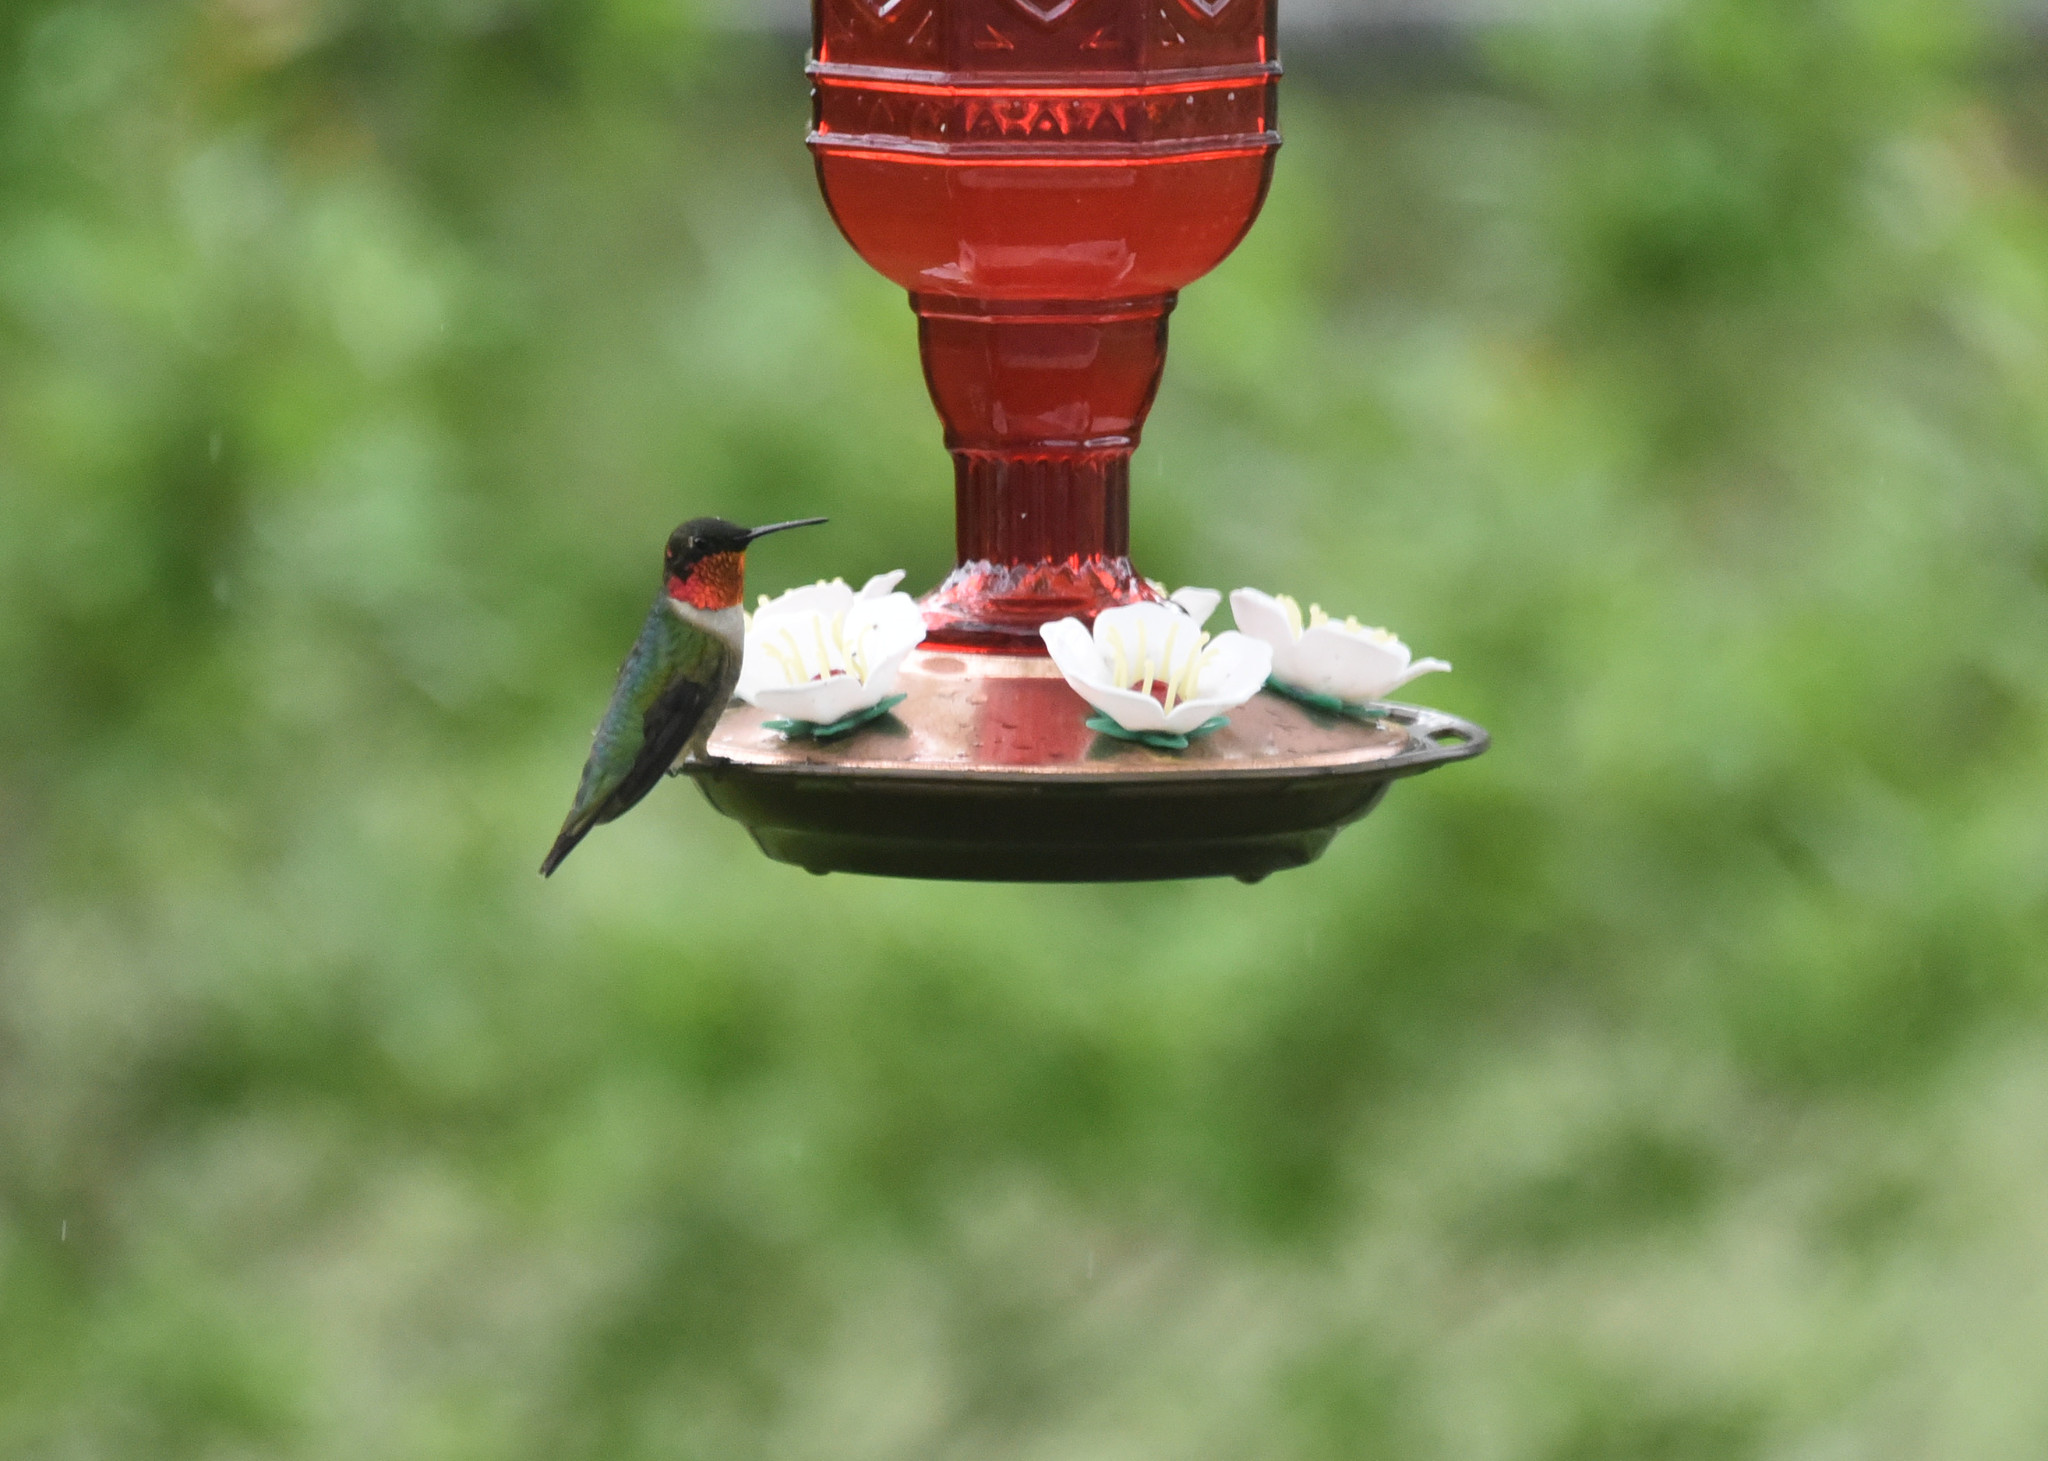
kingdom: Animalia
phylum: Chordata
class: Aves
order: Apodiformes
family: Trochilidae
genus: Archilochus
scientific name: Archilochus colubris
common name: Ruby-throated hummingbird
